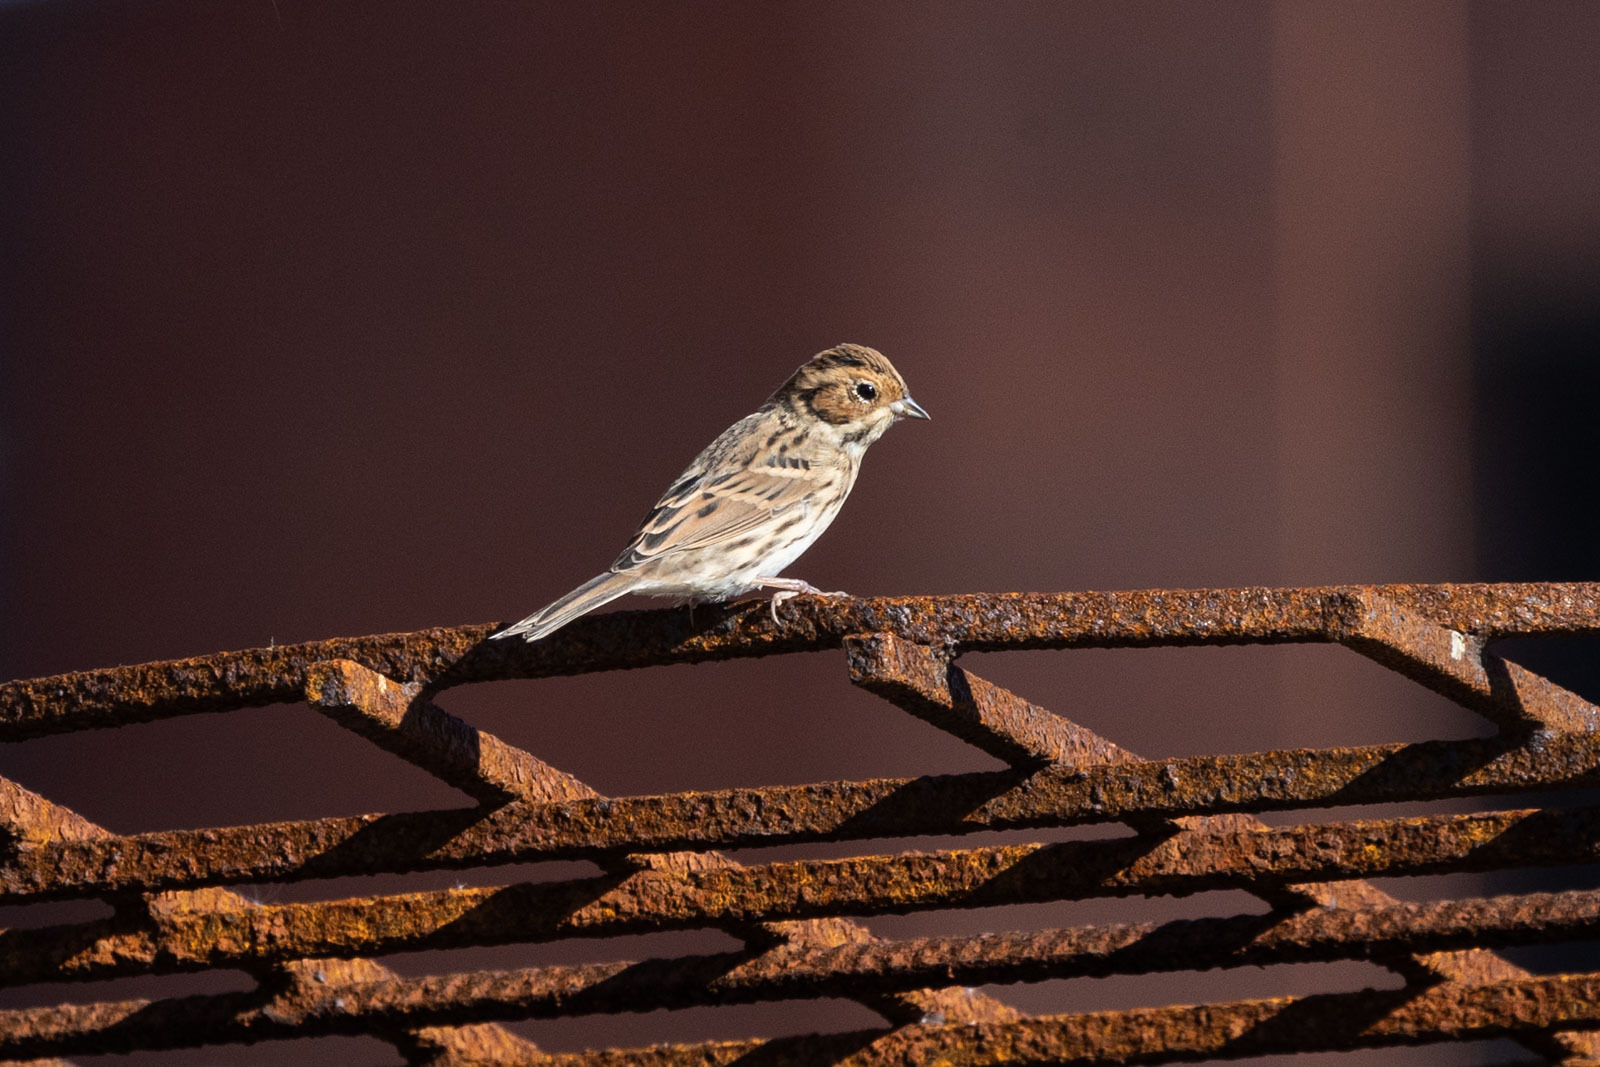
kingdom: Animalia
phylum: Chordata
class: Aves
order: Passeriformes
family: Emberizidae
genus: Emberiza
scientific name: Emberiza pusilla
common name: Little bunting
